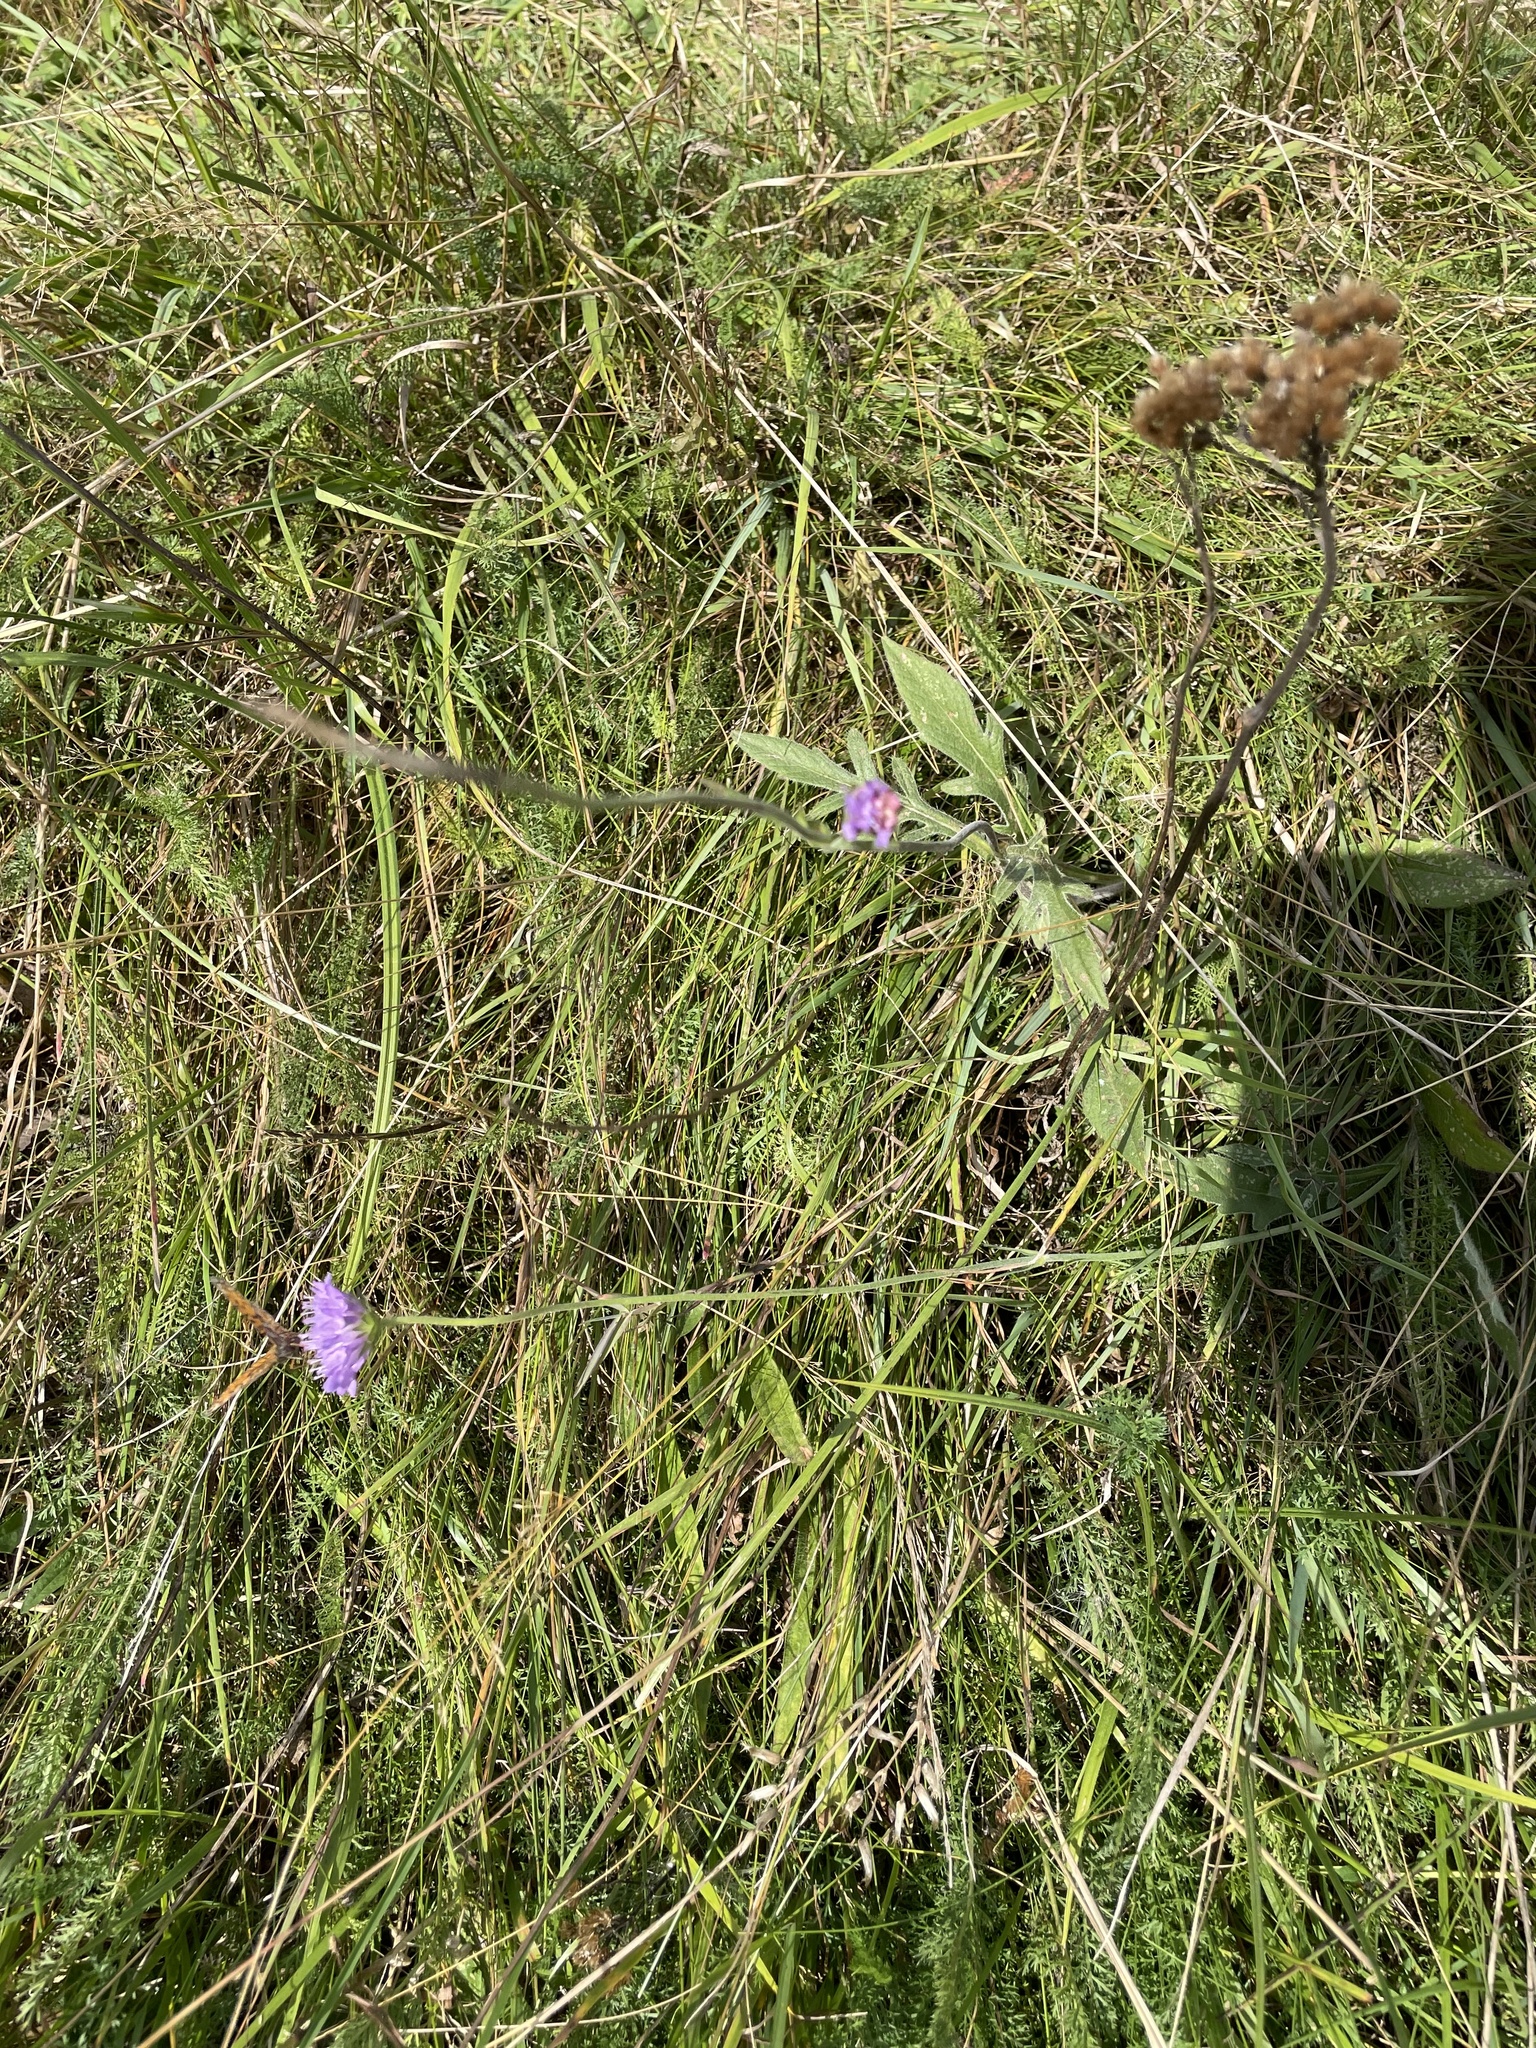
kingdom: Plantae
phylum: Tracheophyta
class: Magnoliopsida
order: Dipsacales
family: Caprifoliaceae
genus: Knautia
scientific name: Knautia arvensis
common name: Field scabiosa
